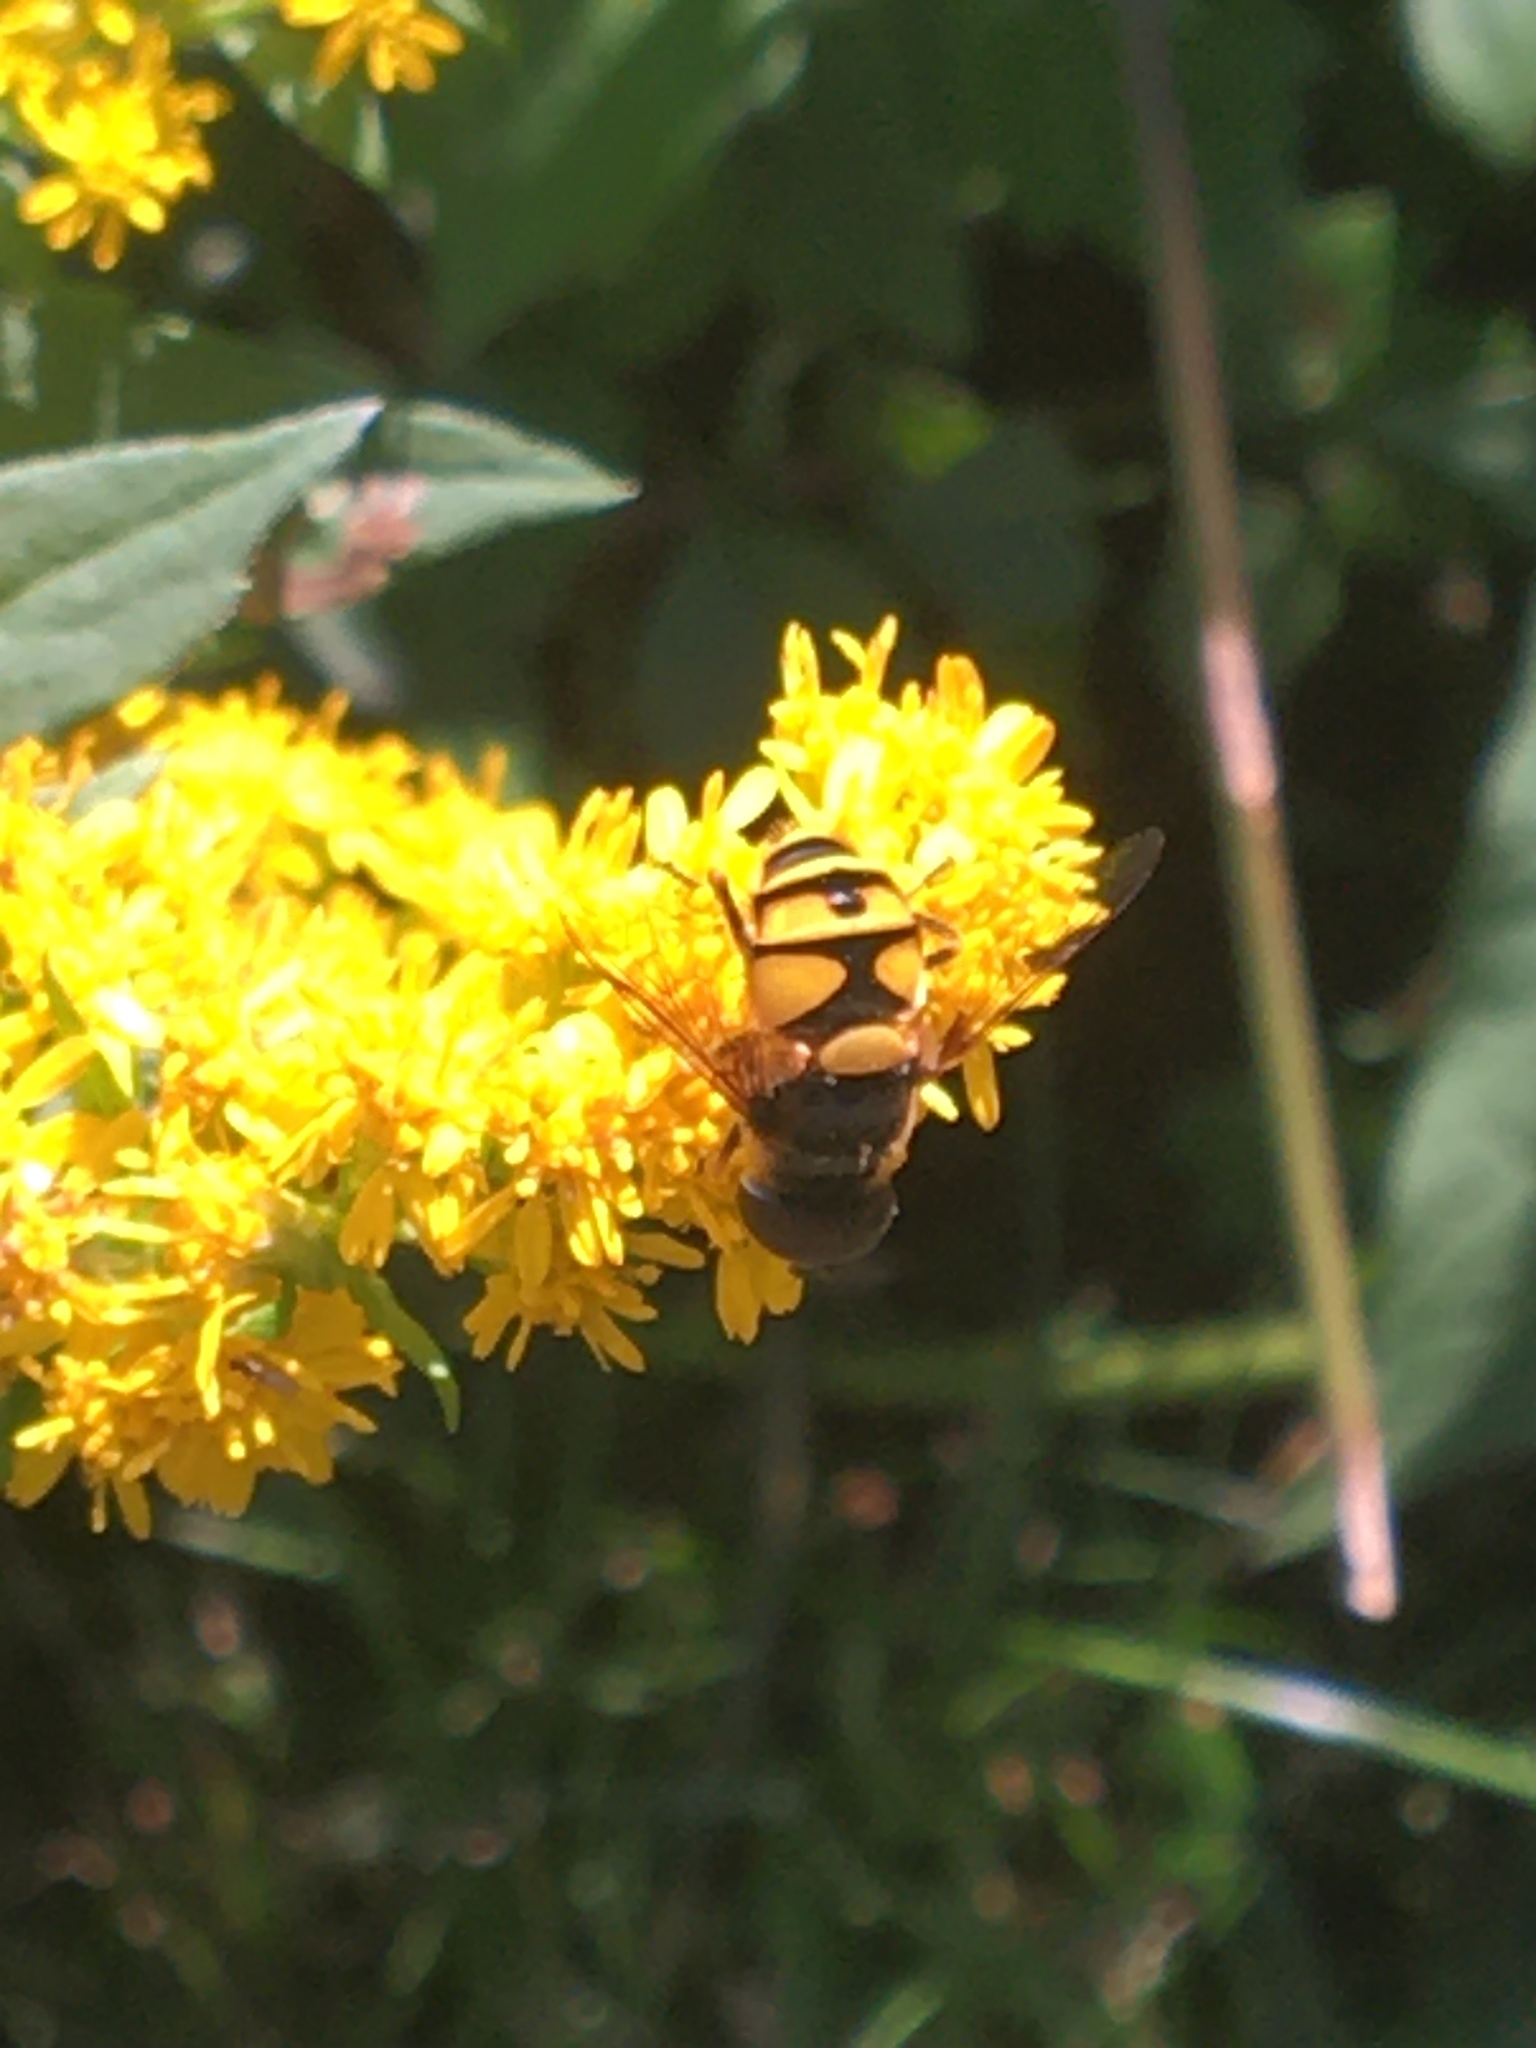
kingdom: Animalia
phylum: Arthropoda
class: Insecta
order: Diptera
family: Syrphidae
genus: Eristalis
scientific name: Eristalis transversa
